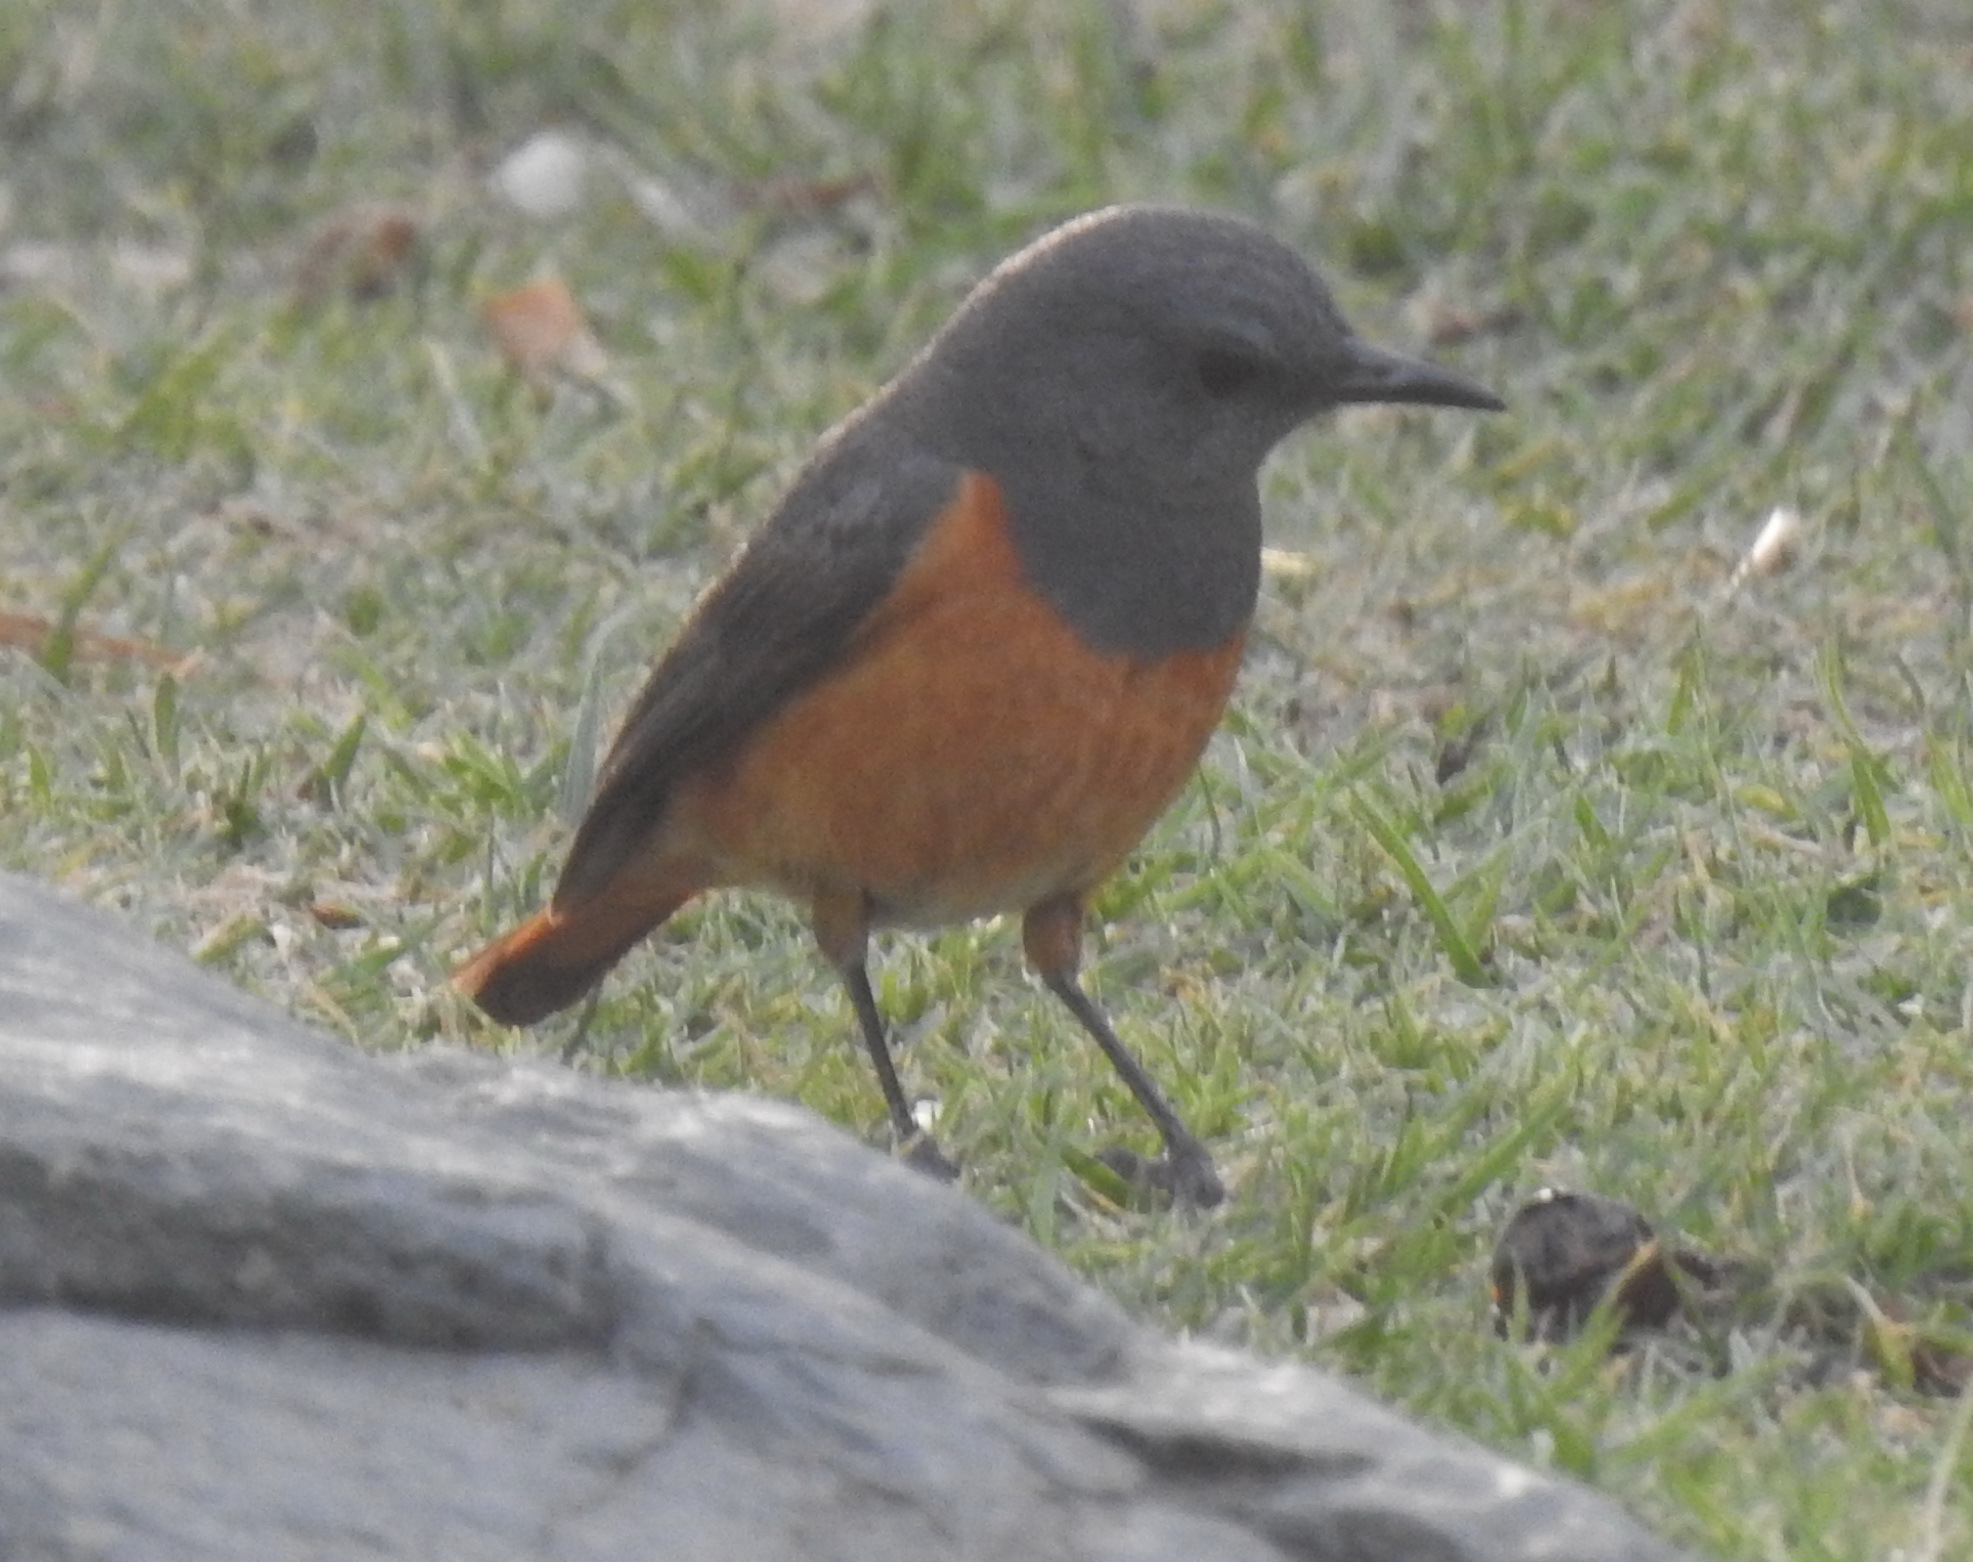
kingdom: Animalia
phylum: Chordata
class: Aves
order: Passeriformes
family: Muscicapidae
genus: Monticola
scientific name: Monticola rufocinereus
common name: Little rock thrush
